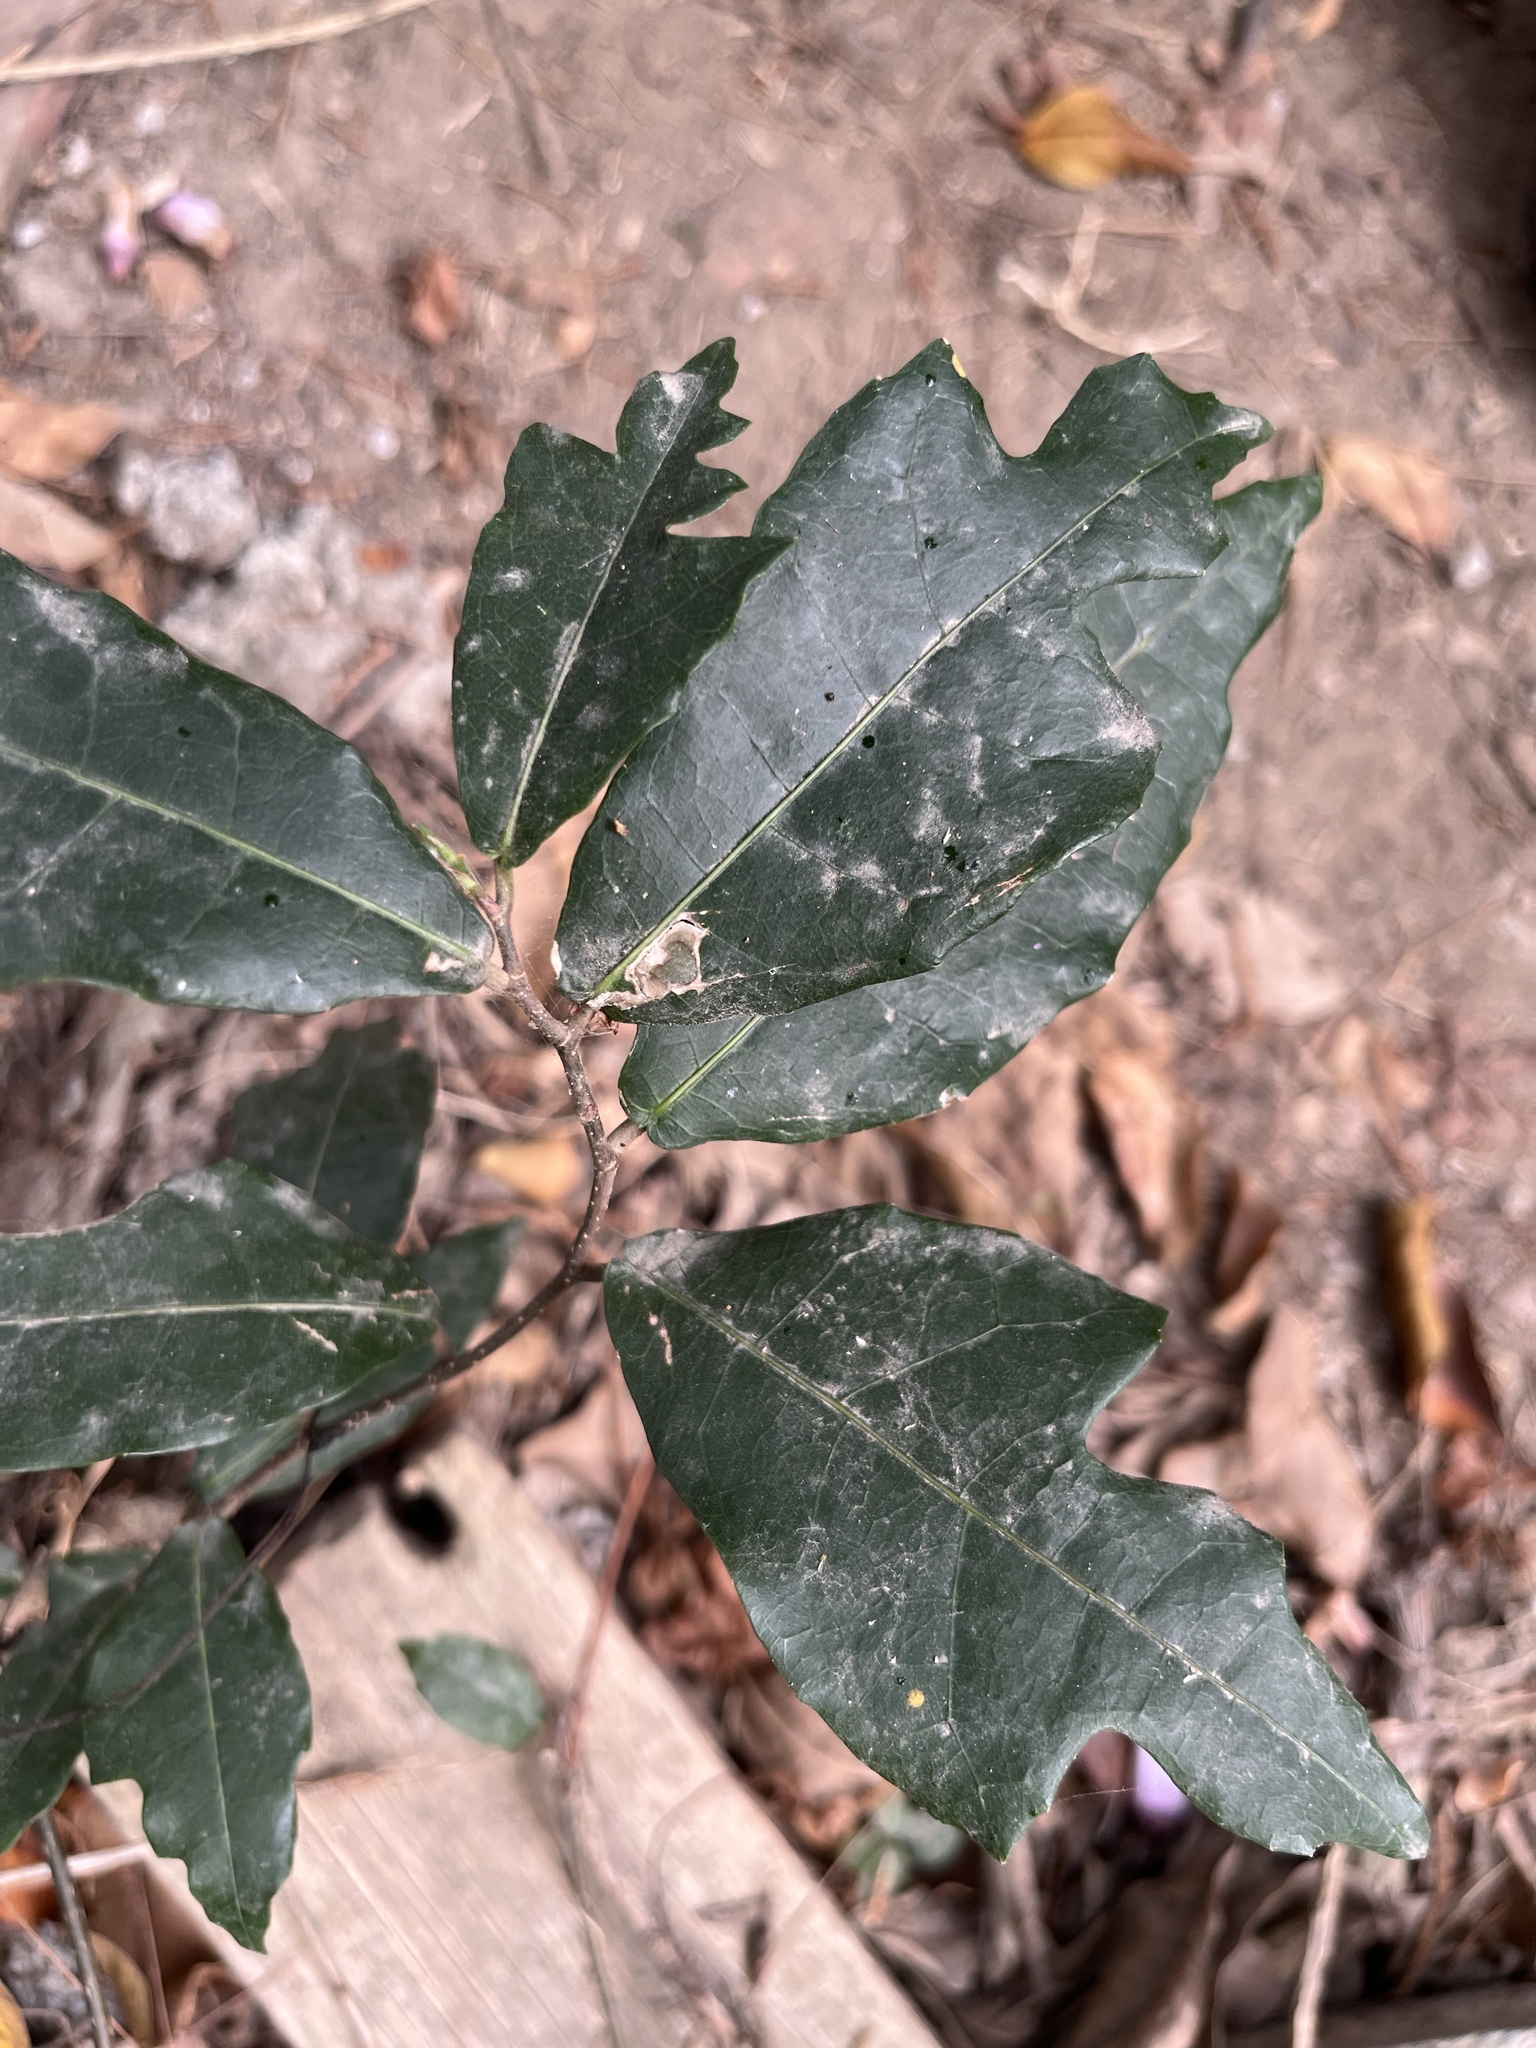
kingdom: Plantae
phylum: Tracheophyta
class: Magnoliopsida
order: Rosales
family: Moraceae
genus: Malaisia
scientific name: Malaisia scandens
